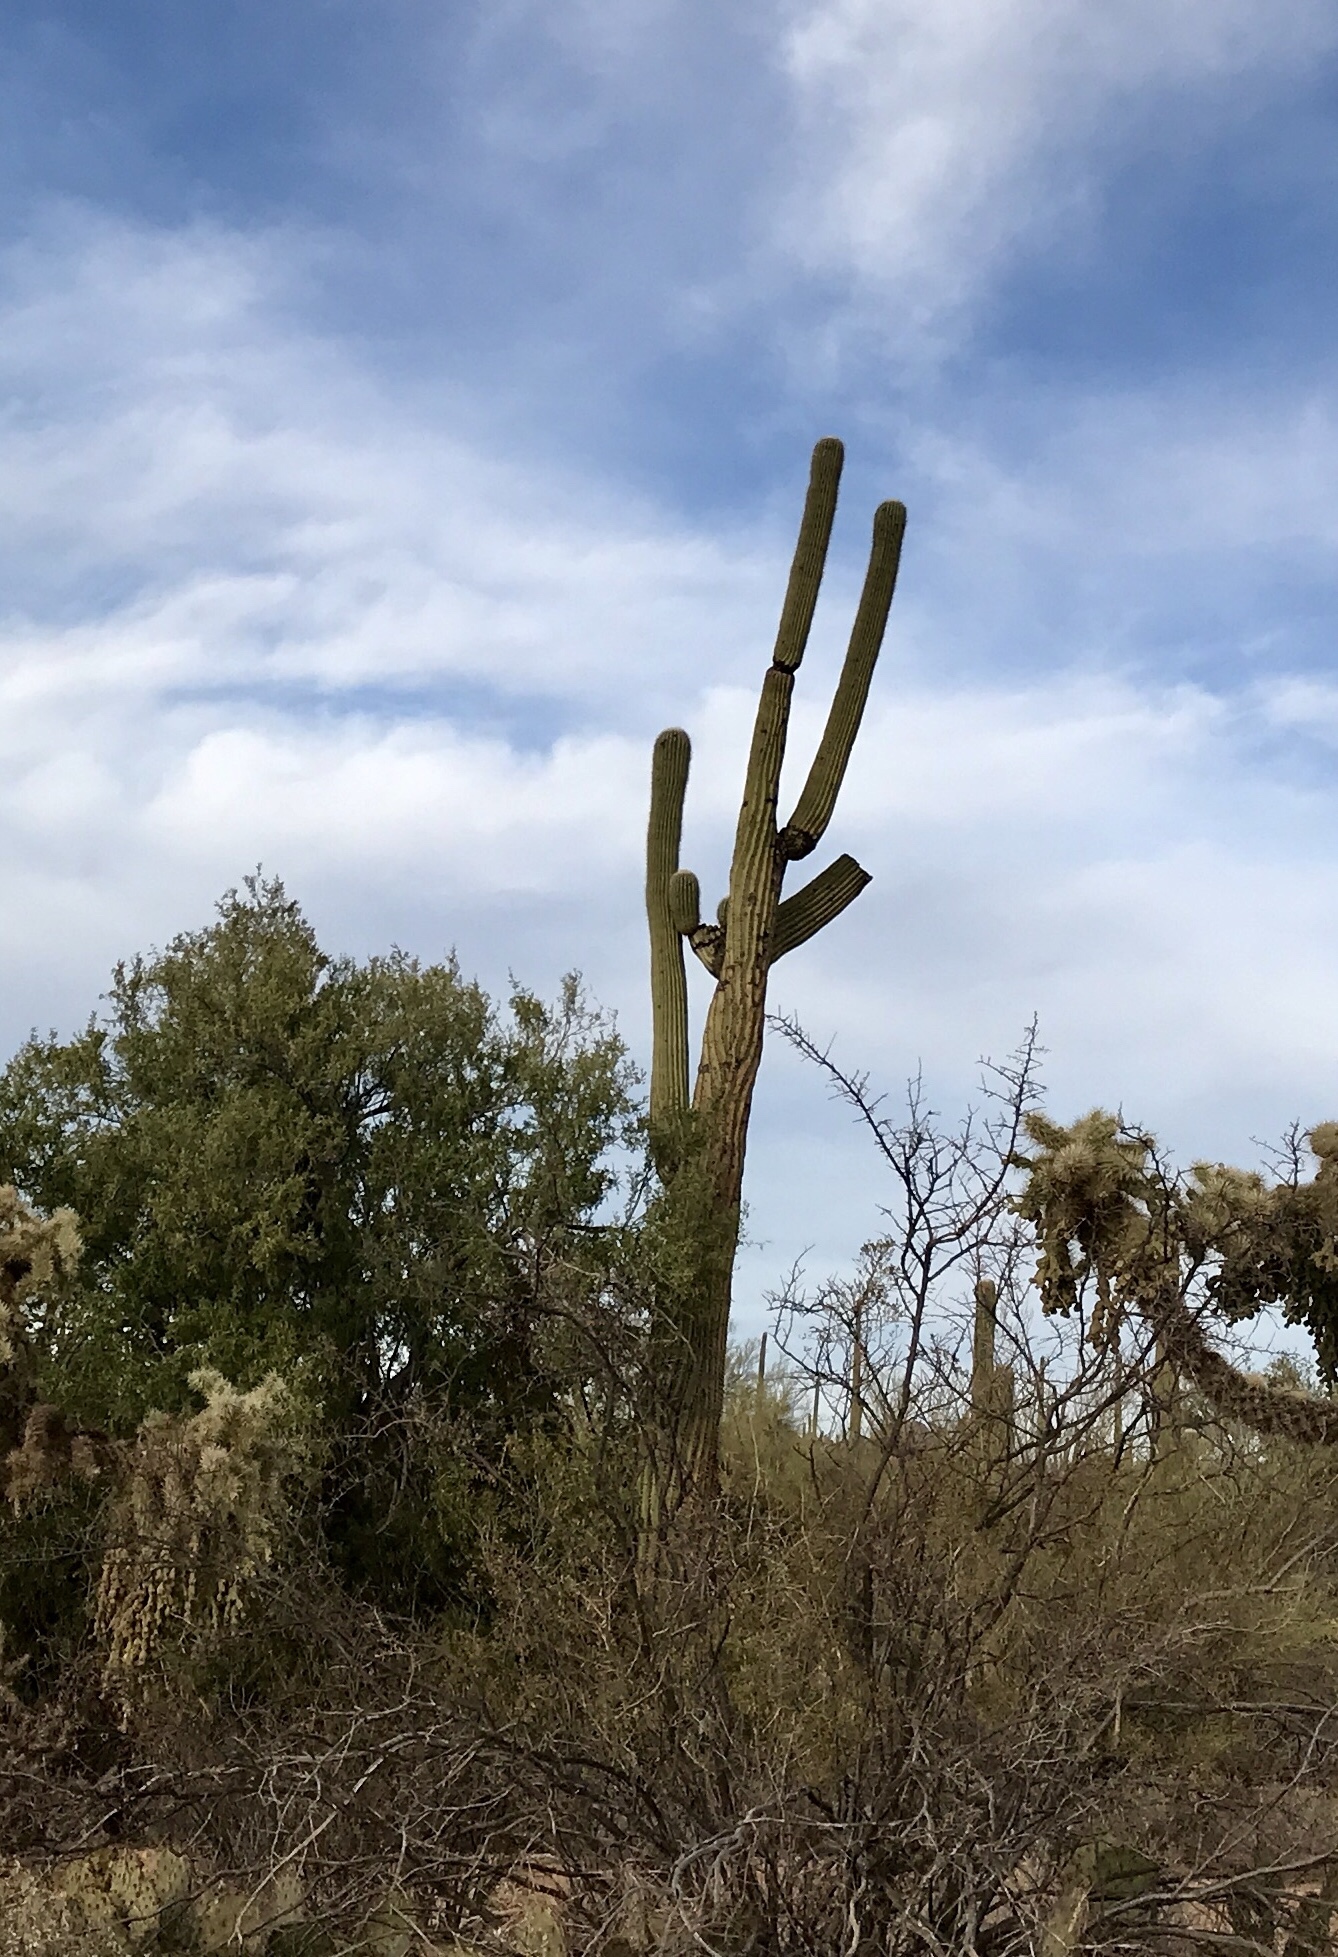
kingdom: Plantae
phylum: Tracheophyta
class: Magnoliopsida
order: Caryophyllales
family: Cactaceae
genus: Carnegiea
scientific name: Carnegiea gigantea
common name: Saguaro
